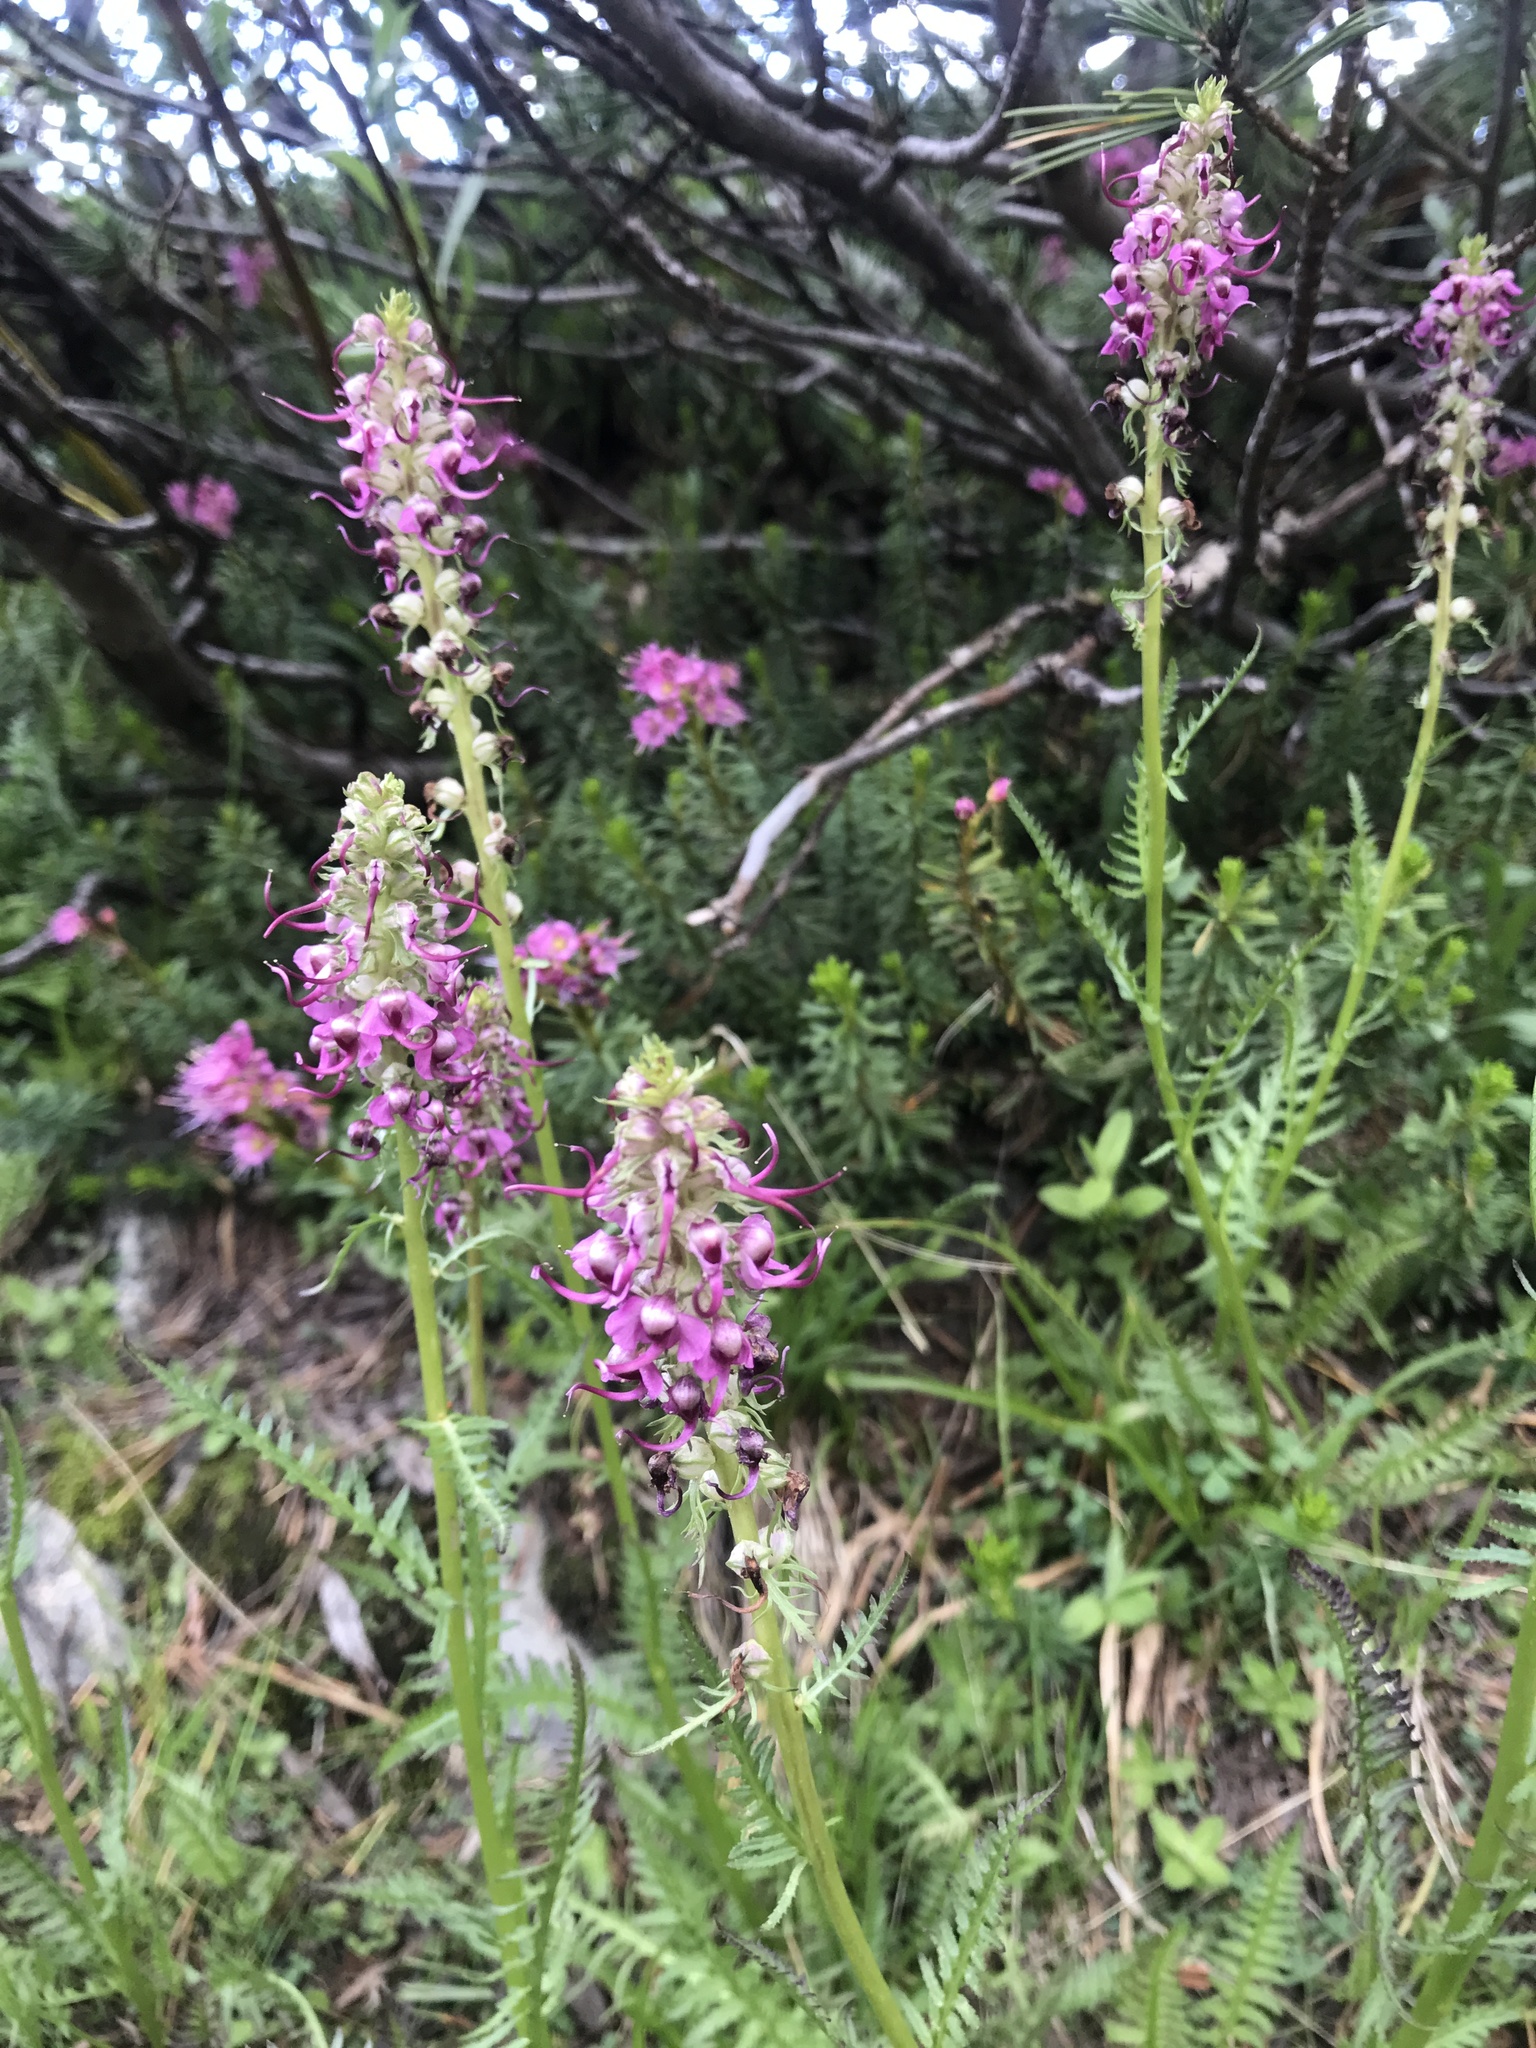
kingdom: Plantae
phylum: Tracheophyta
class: Magnoliopsida
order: Lamiales
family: Orobanchaceae
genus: Pedicularis
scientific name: Pedicularis groenlandica
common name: Elephant's-head
